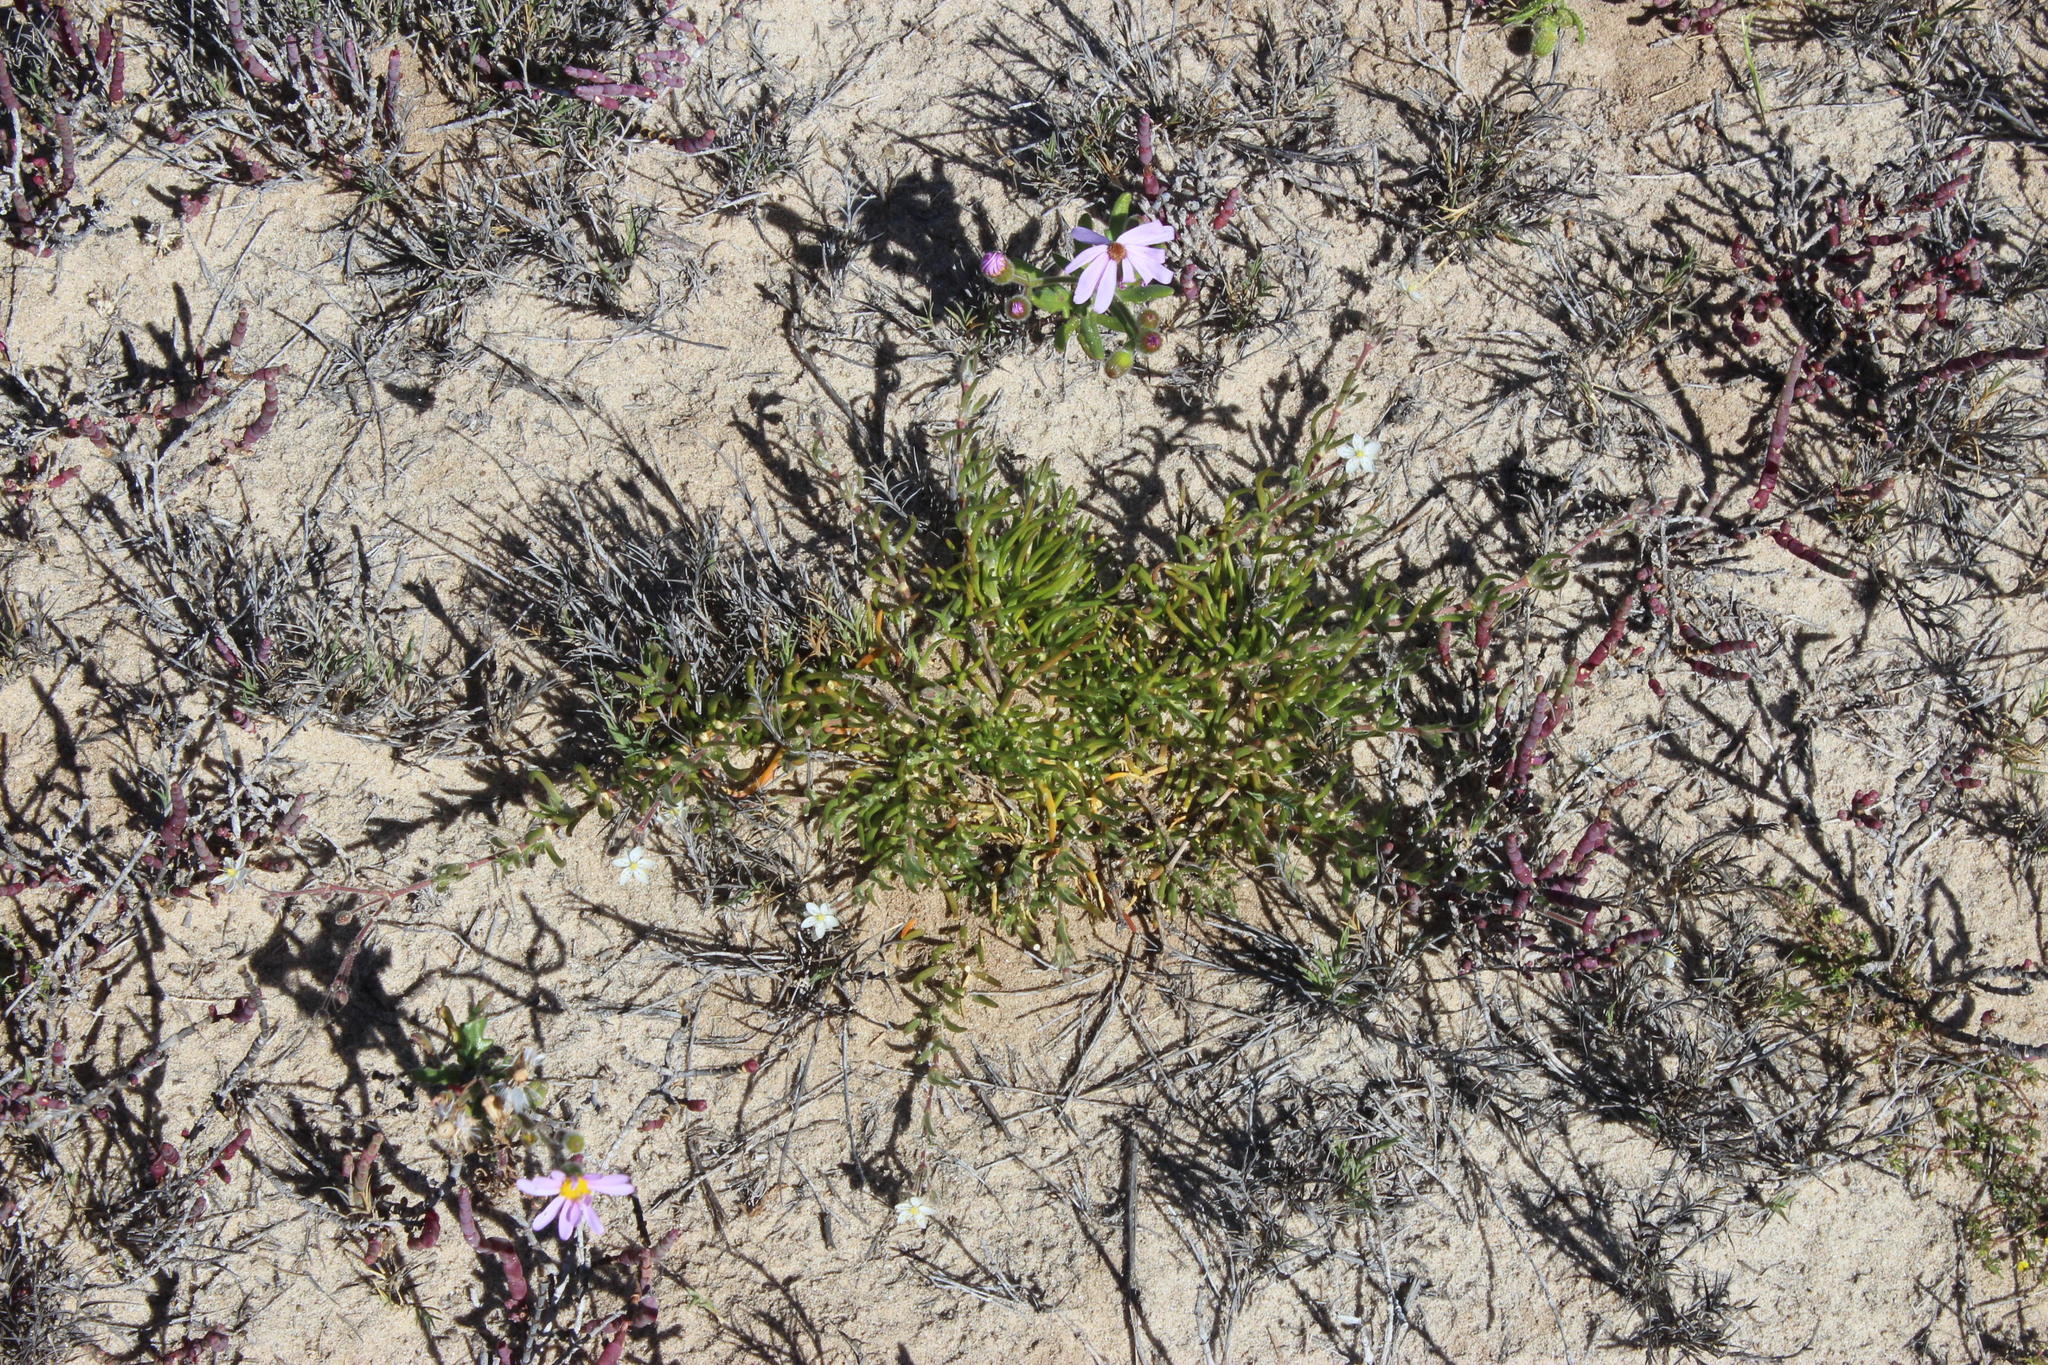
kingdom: Plantae
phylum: Tracheophyta
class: Magnoliopsida
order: Caryophyllales
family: Caryophyllaceae
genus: Spergularia
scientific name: Spergularia media
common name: Greater sea-spurrey
